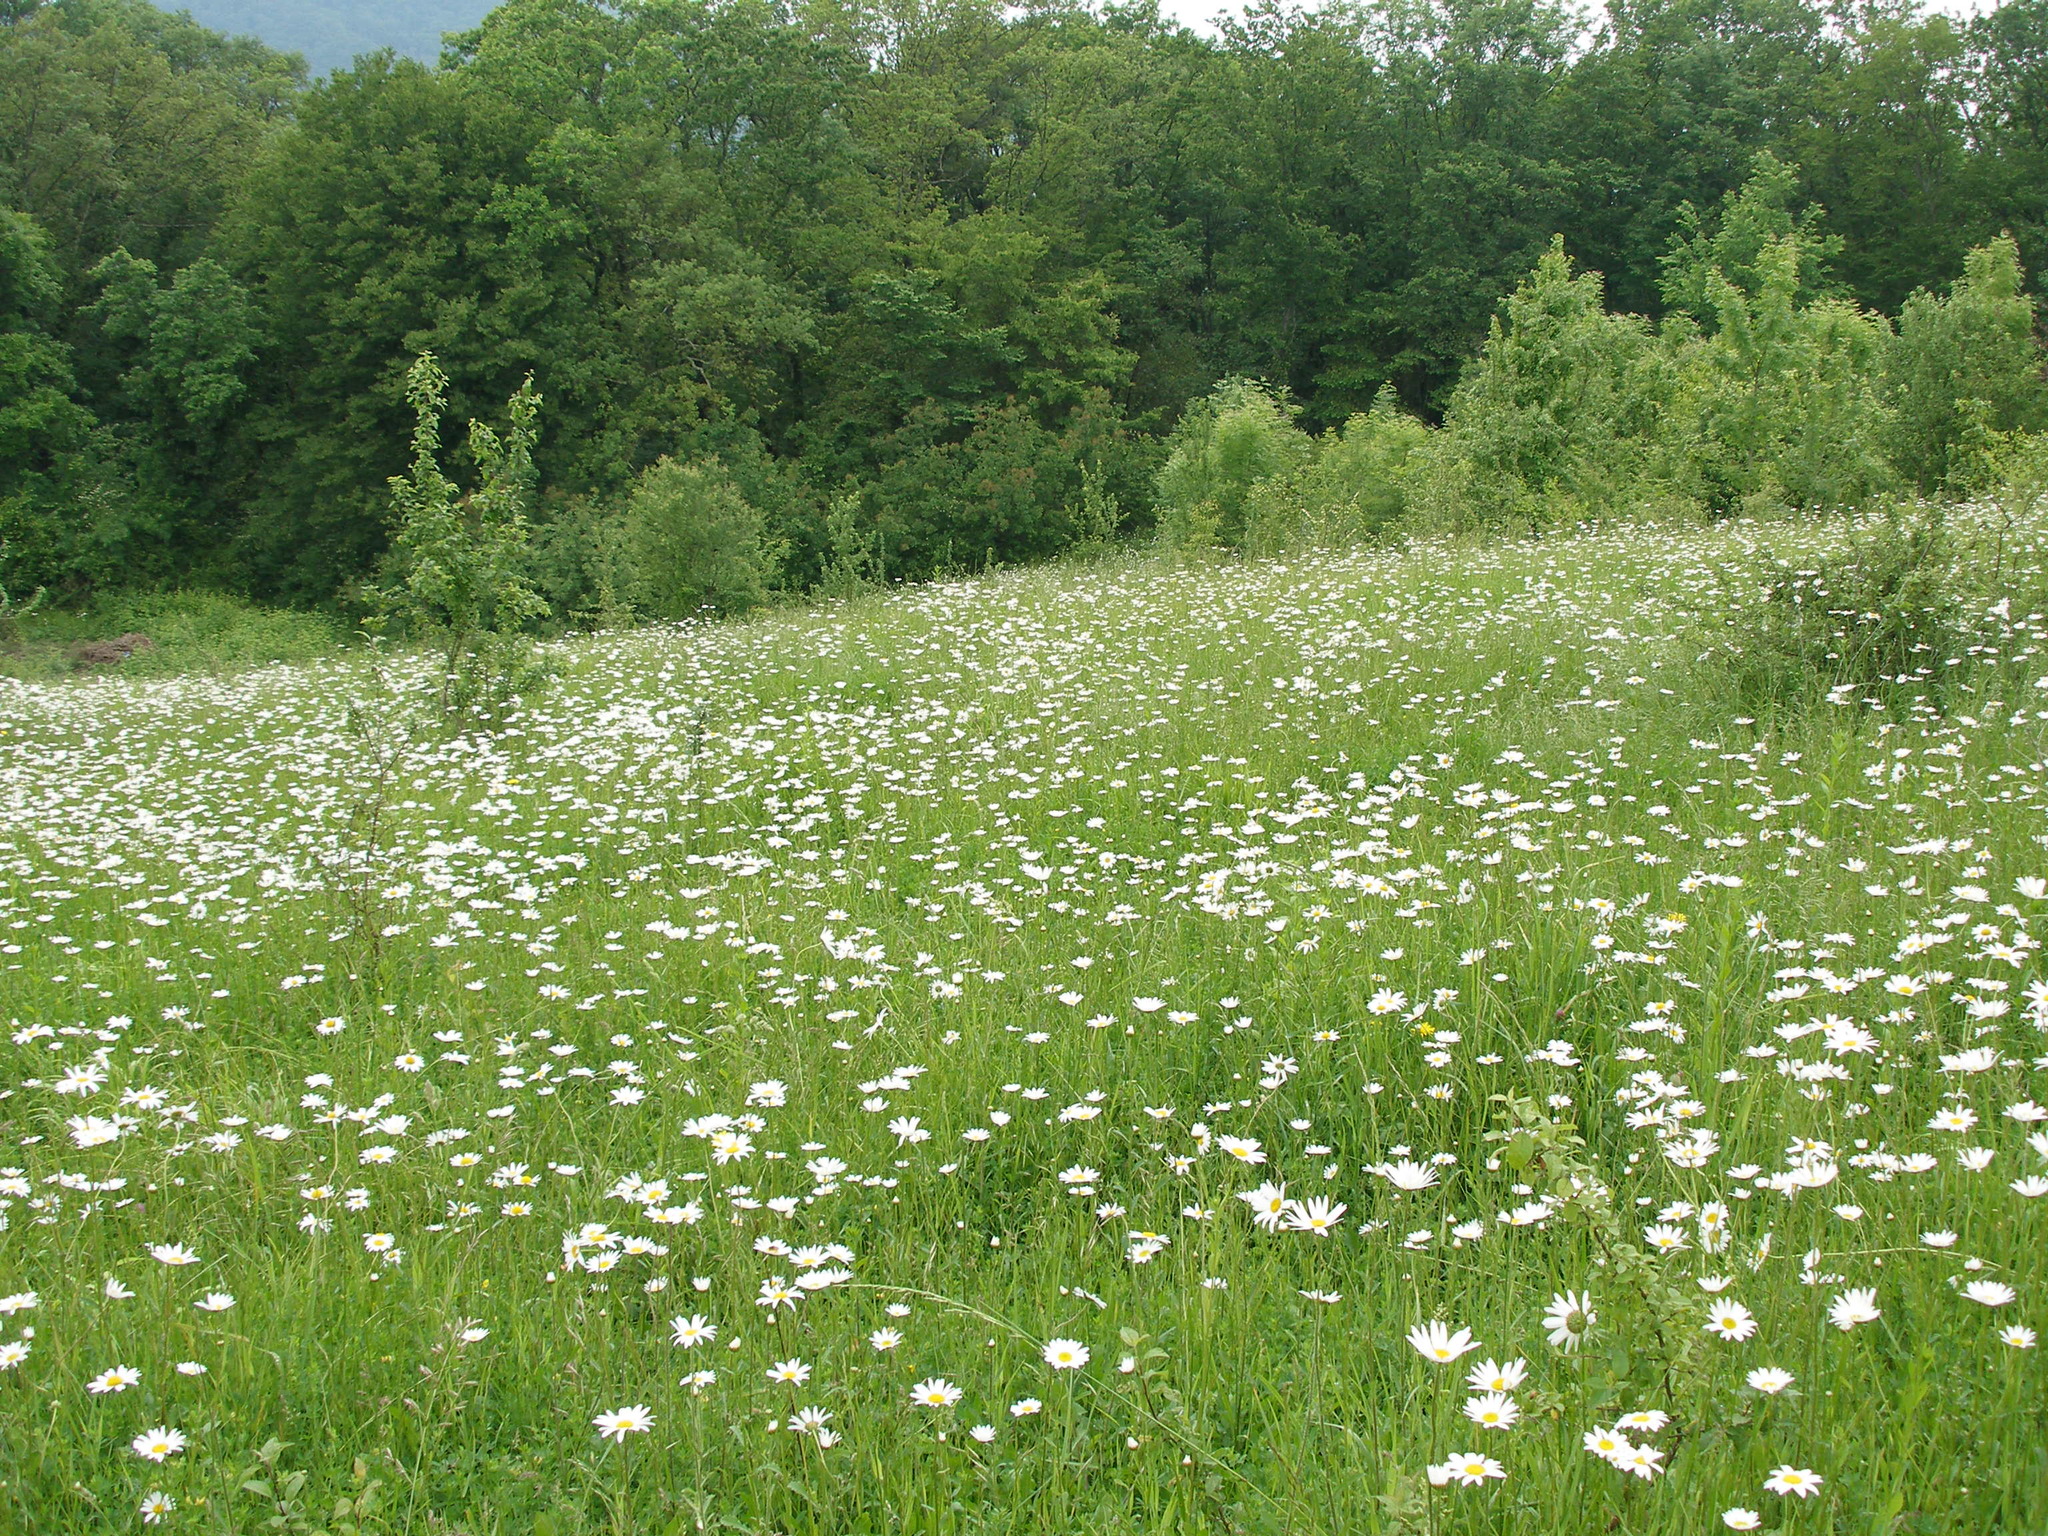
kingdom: Plantae
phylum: Tracheophyta
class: Magnoliopsida
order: Asterales
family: Asteraceae
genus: Leucanthemum
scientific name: Leucanthemum vulgare
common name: Oxeye daisy
